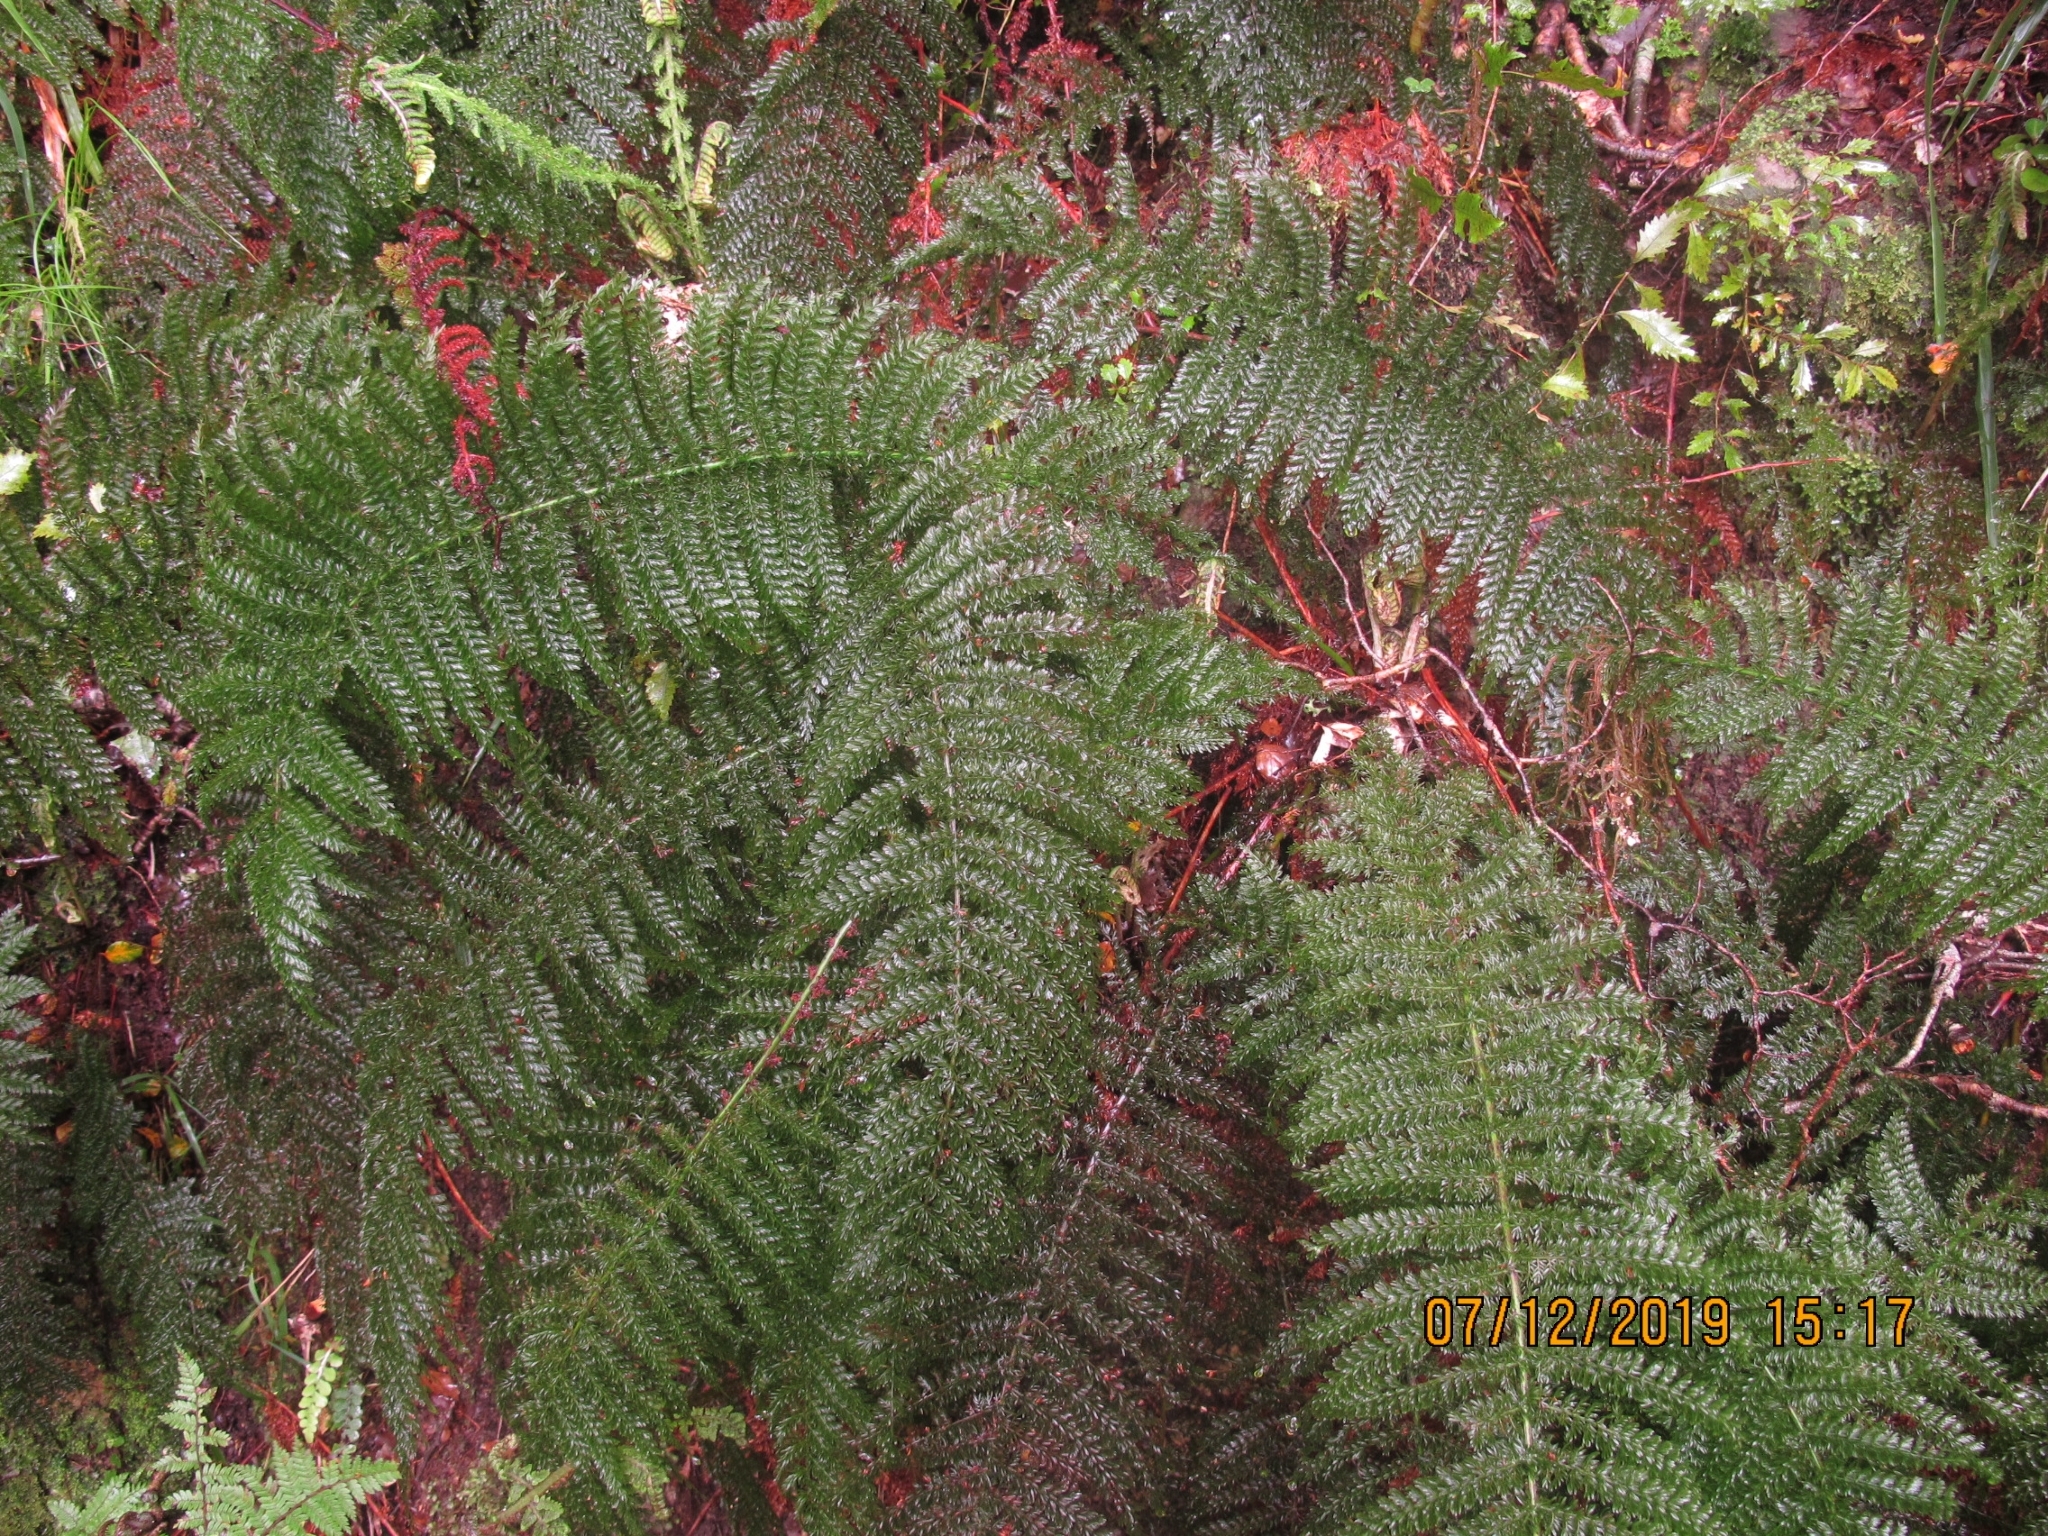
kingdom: Plantae
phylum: Tracheophyta
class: Polypodiopsida
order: Osmundales
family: Osmundaceae
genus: Leptopteris
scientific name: Leptopteris superba
